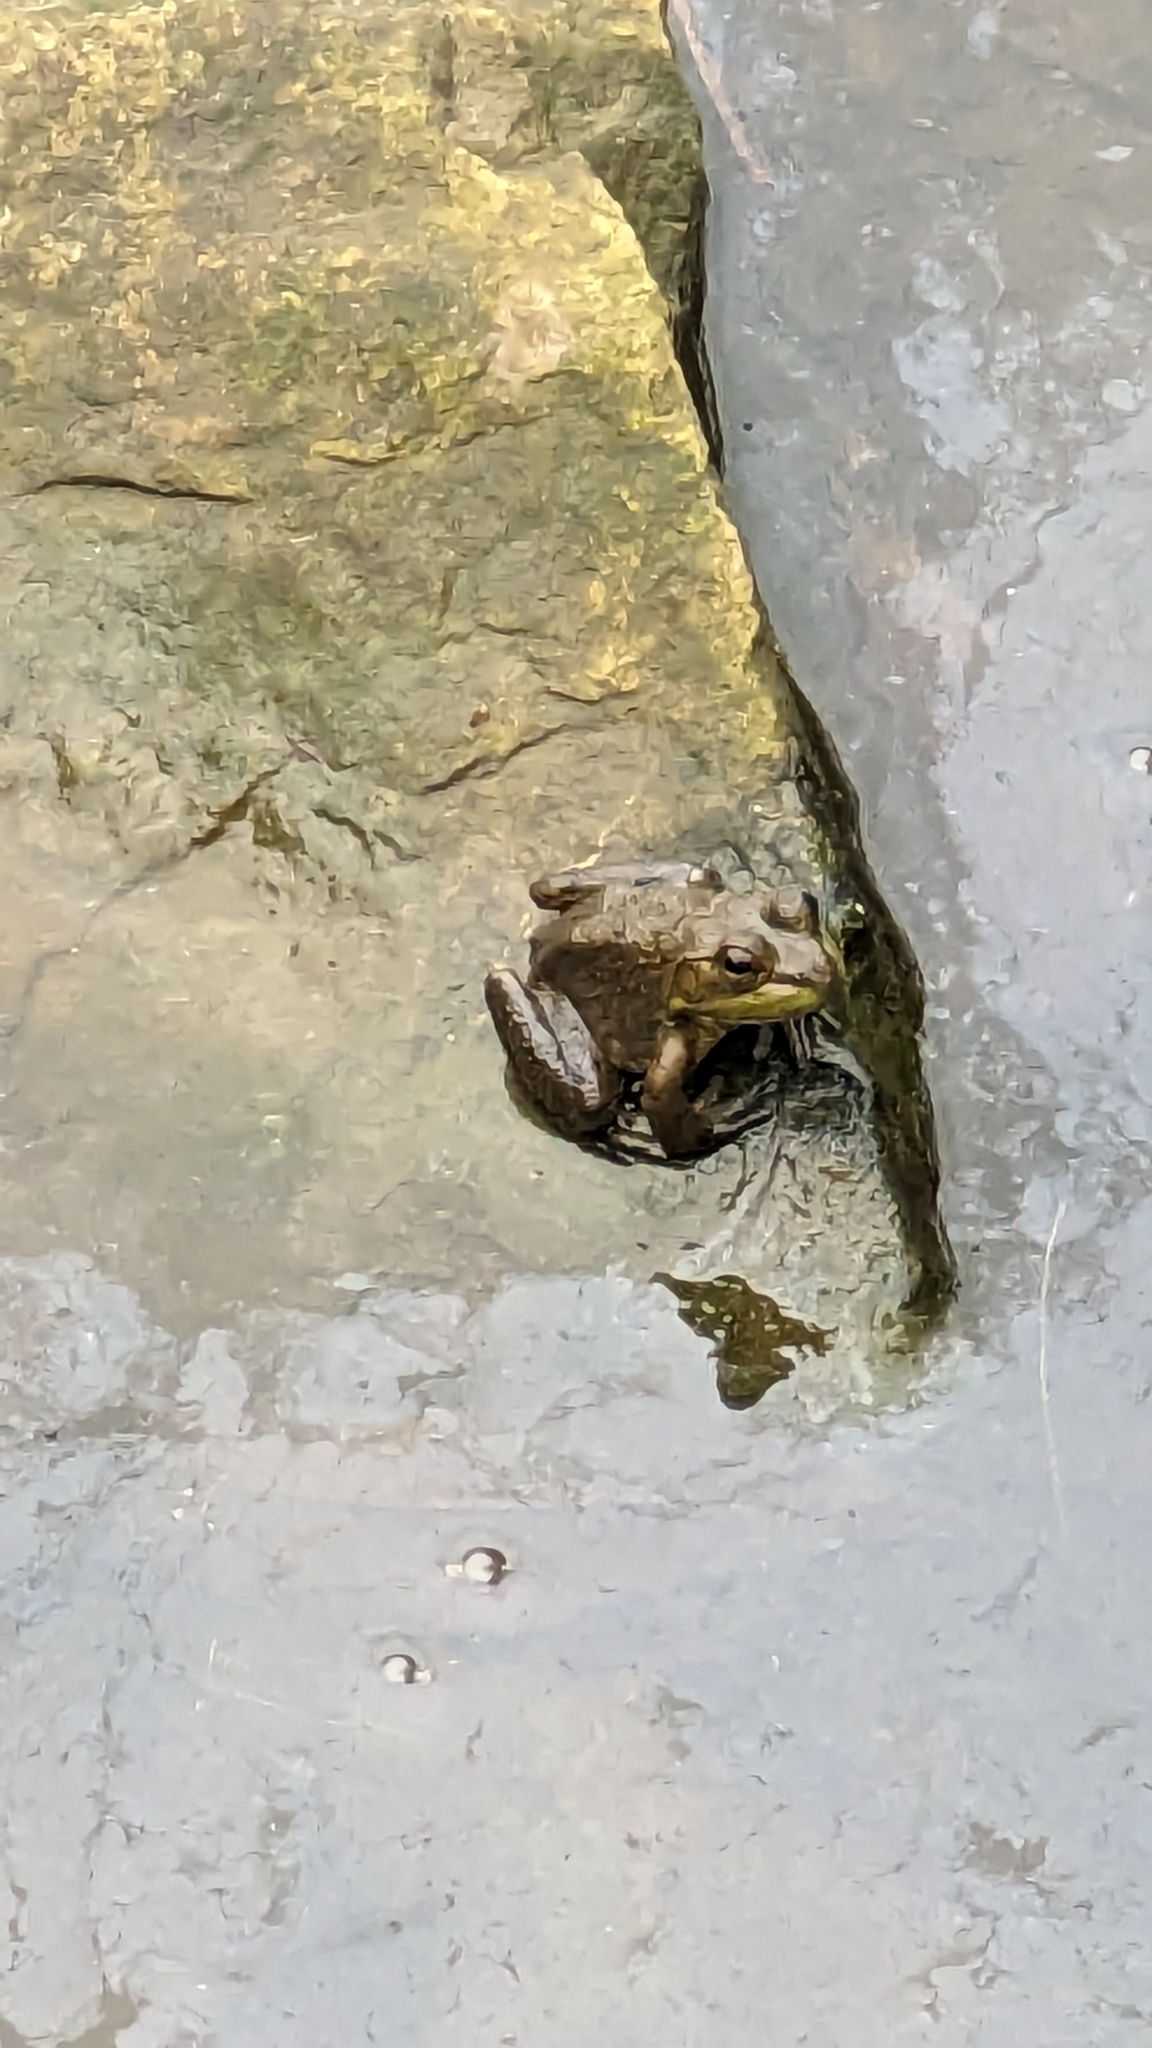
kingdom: Animalia
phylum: Chordata
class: Amphibia
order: Anura
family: Ranidae
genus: Lithobates
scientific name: Lithobates catesbeianus
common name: American bullfrog
